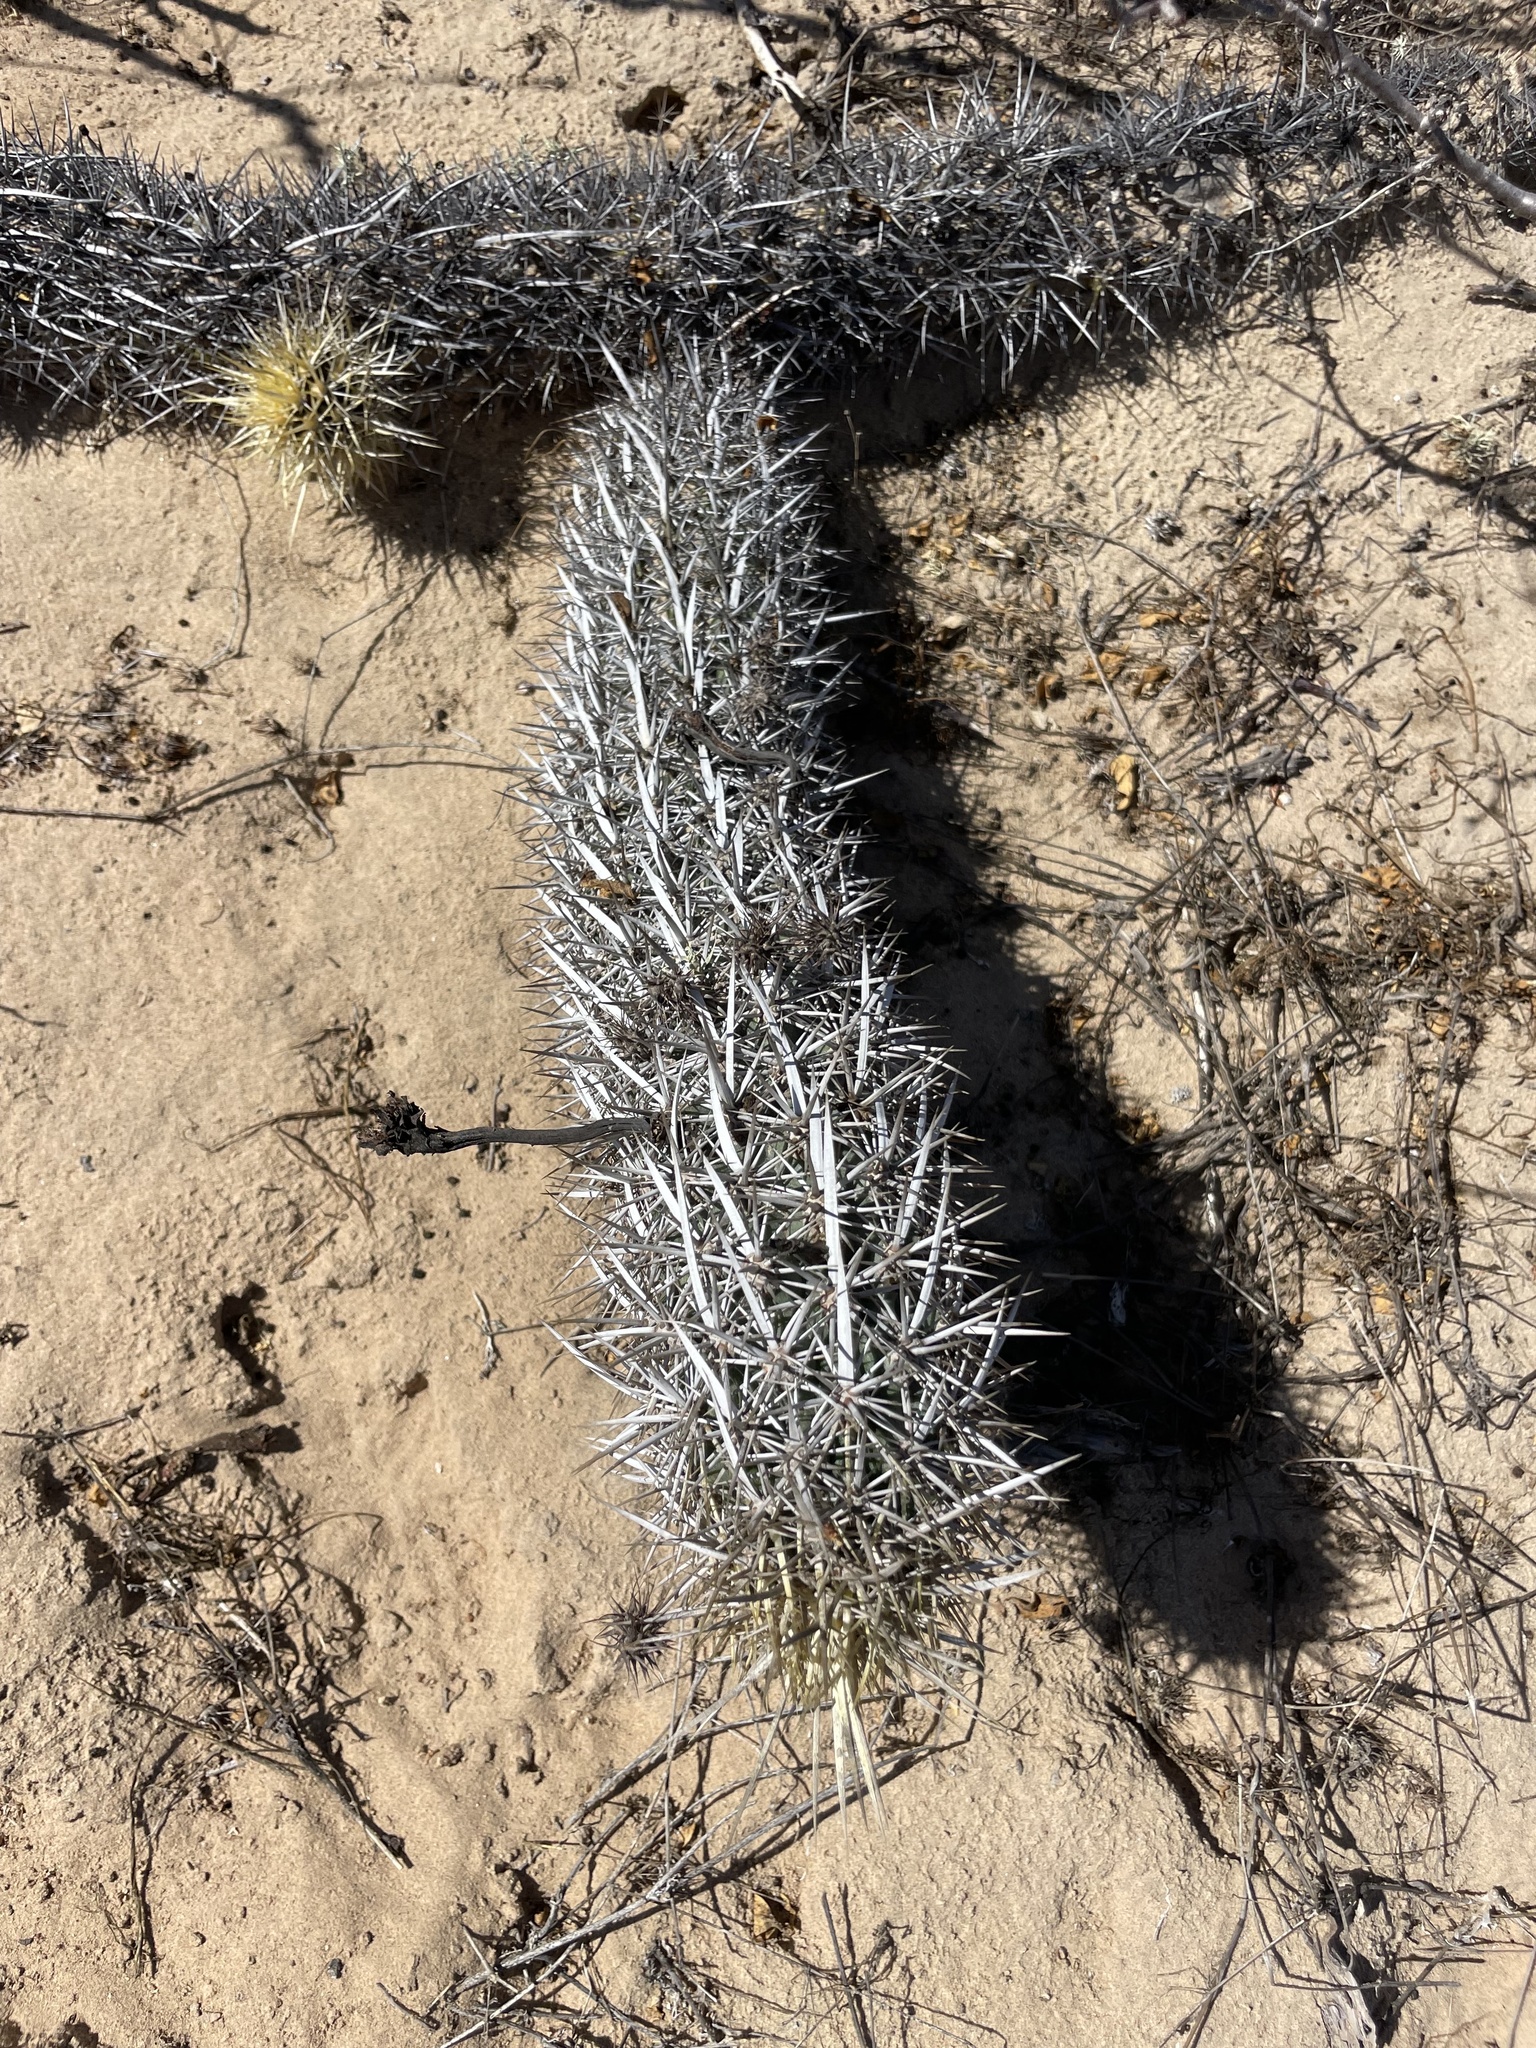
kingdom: Plantae
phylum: Tracheophyta
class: Magnoliopsida
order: Caryophyllales
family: Cactaceae
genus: Stenocereus
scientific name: Stenocereus eruca
